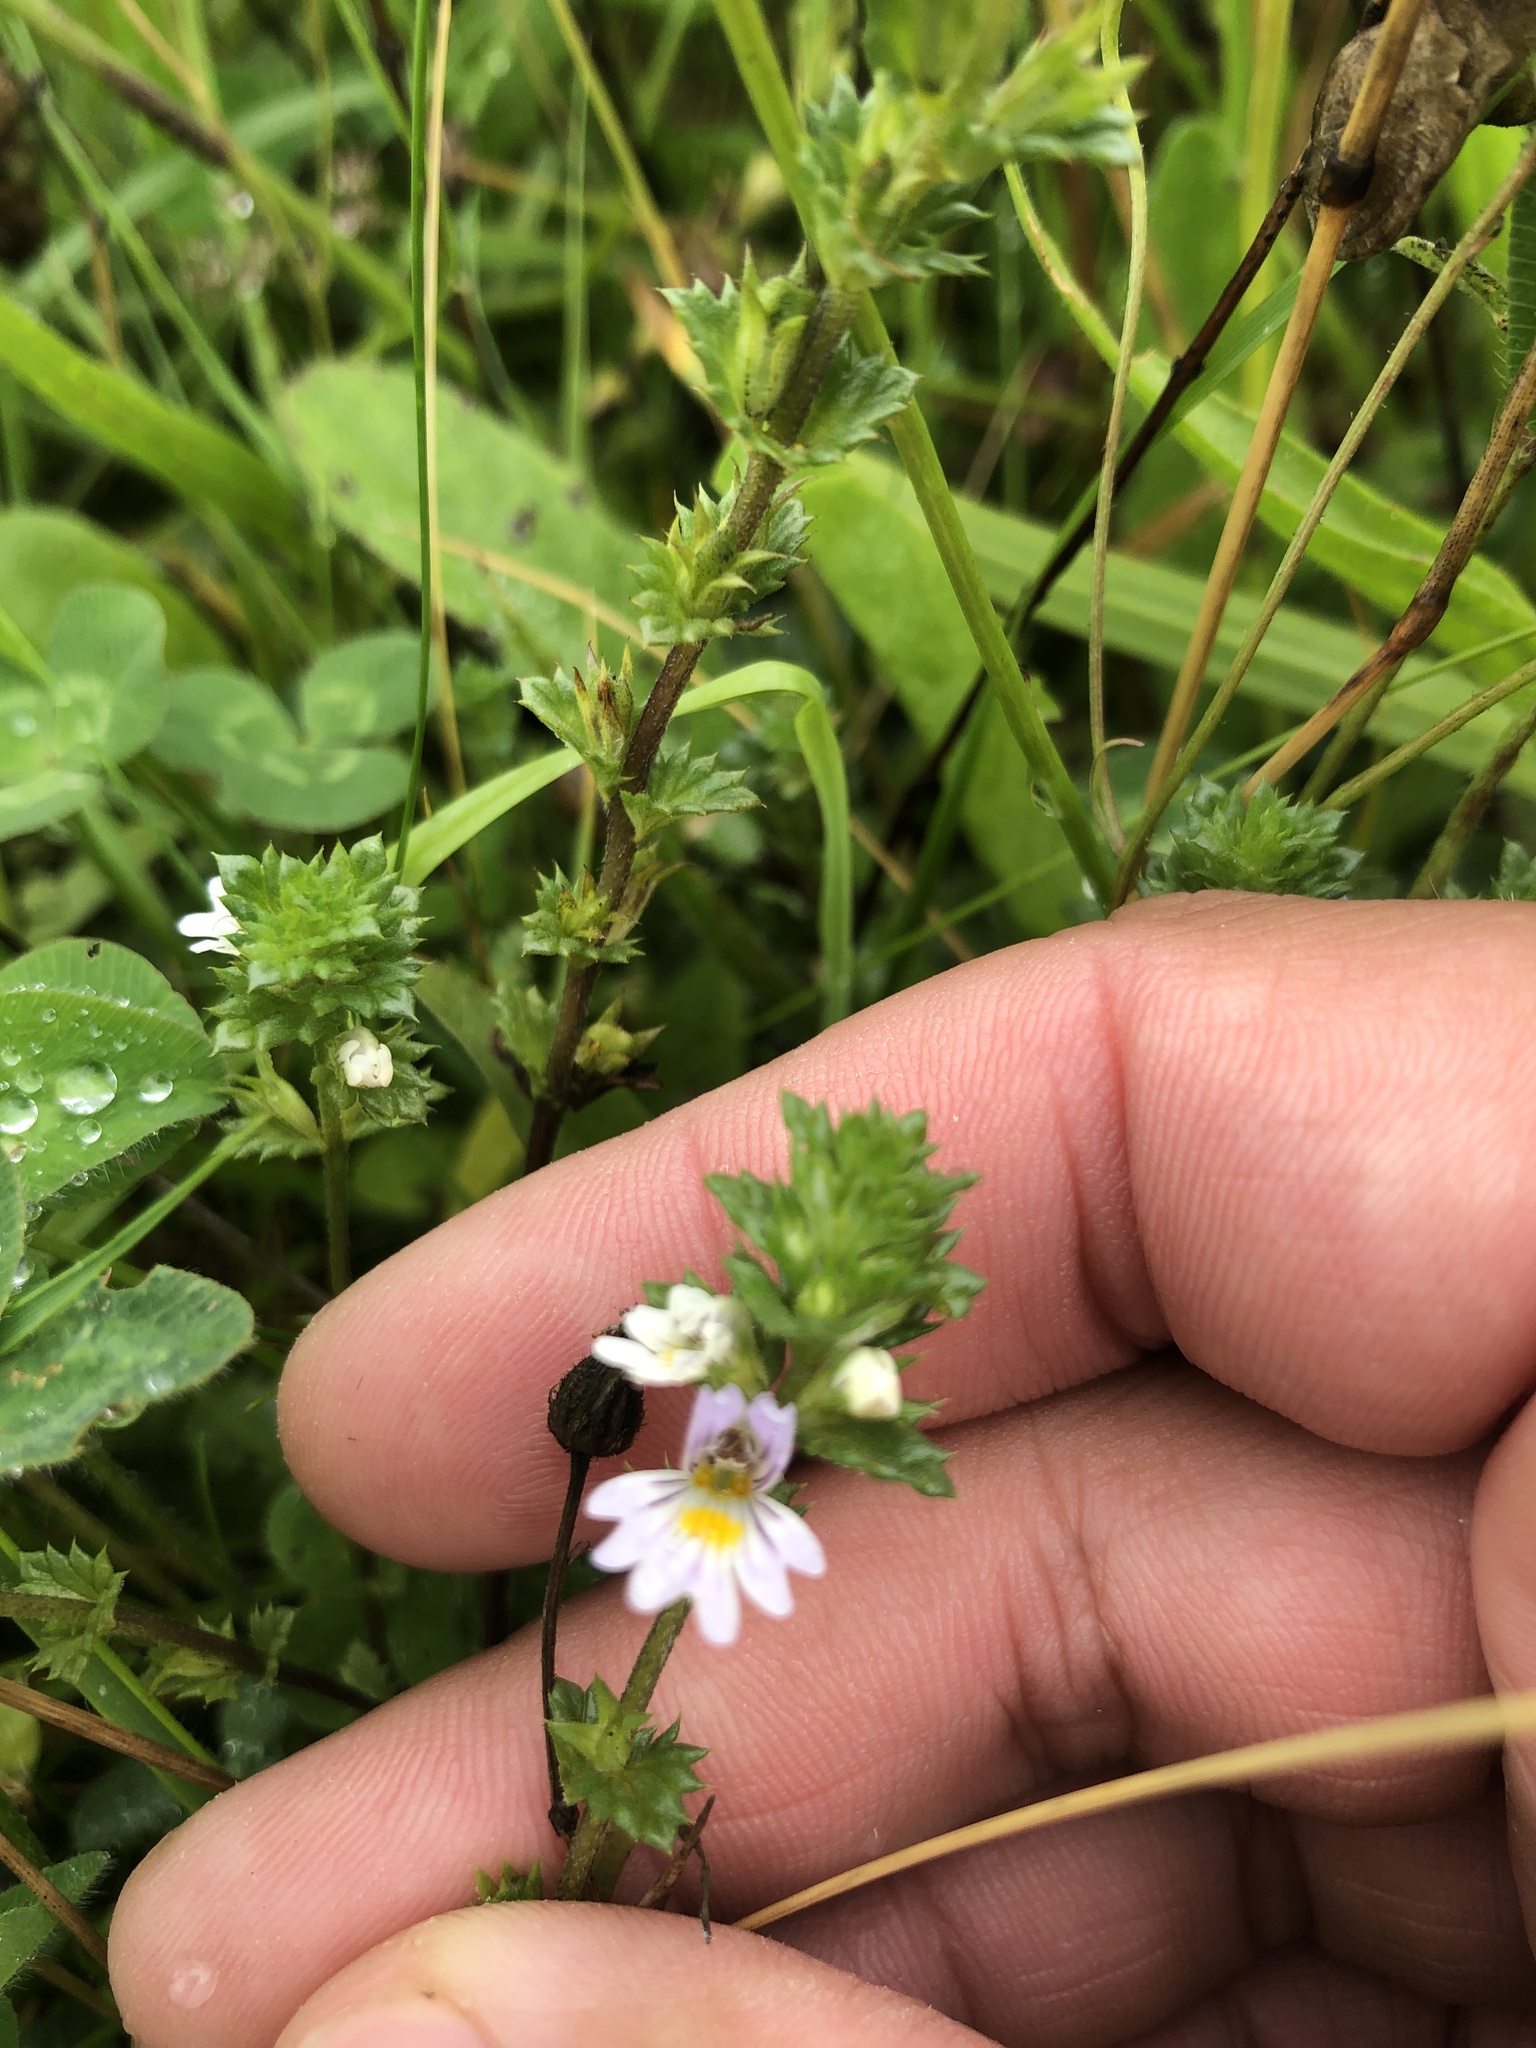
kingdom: Plantae
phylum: Tracheophyta
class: Magnoliopsida
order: Lamiales
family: Orobanchaceae
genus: Euphrasia
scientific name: Euphrasia nemorosa
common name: Common eyebright
